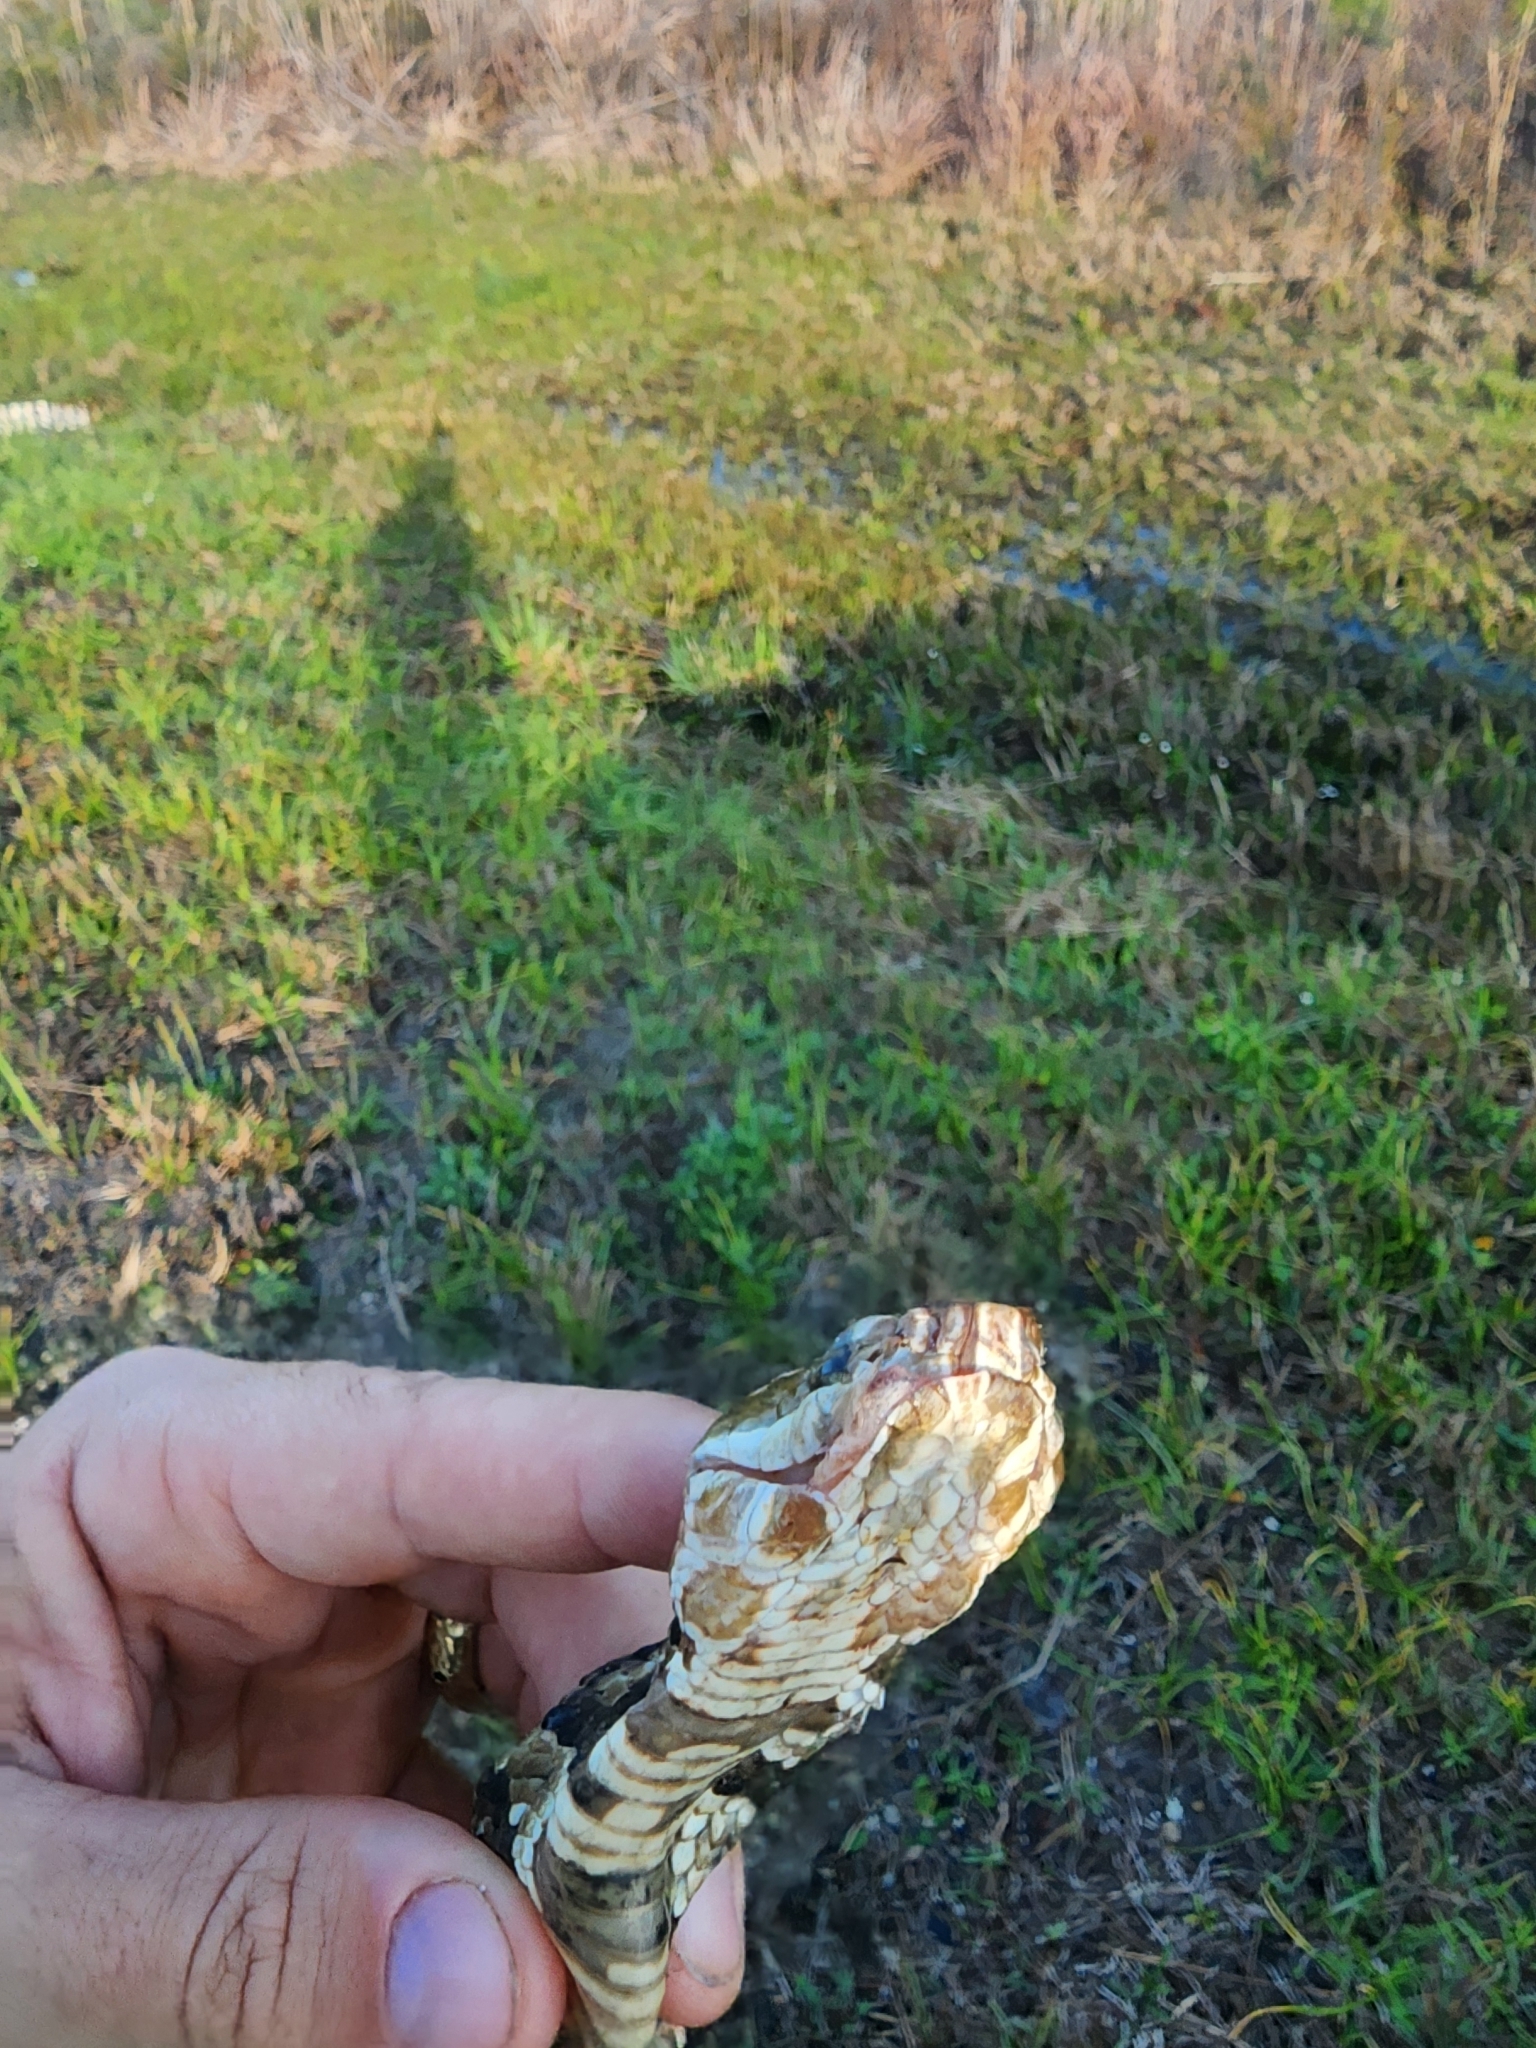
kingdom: Animalia
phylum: Chordata
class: Squamata
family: Viperidae
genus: Agkistrodon
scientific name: Agkistrodon conanti
